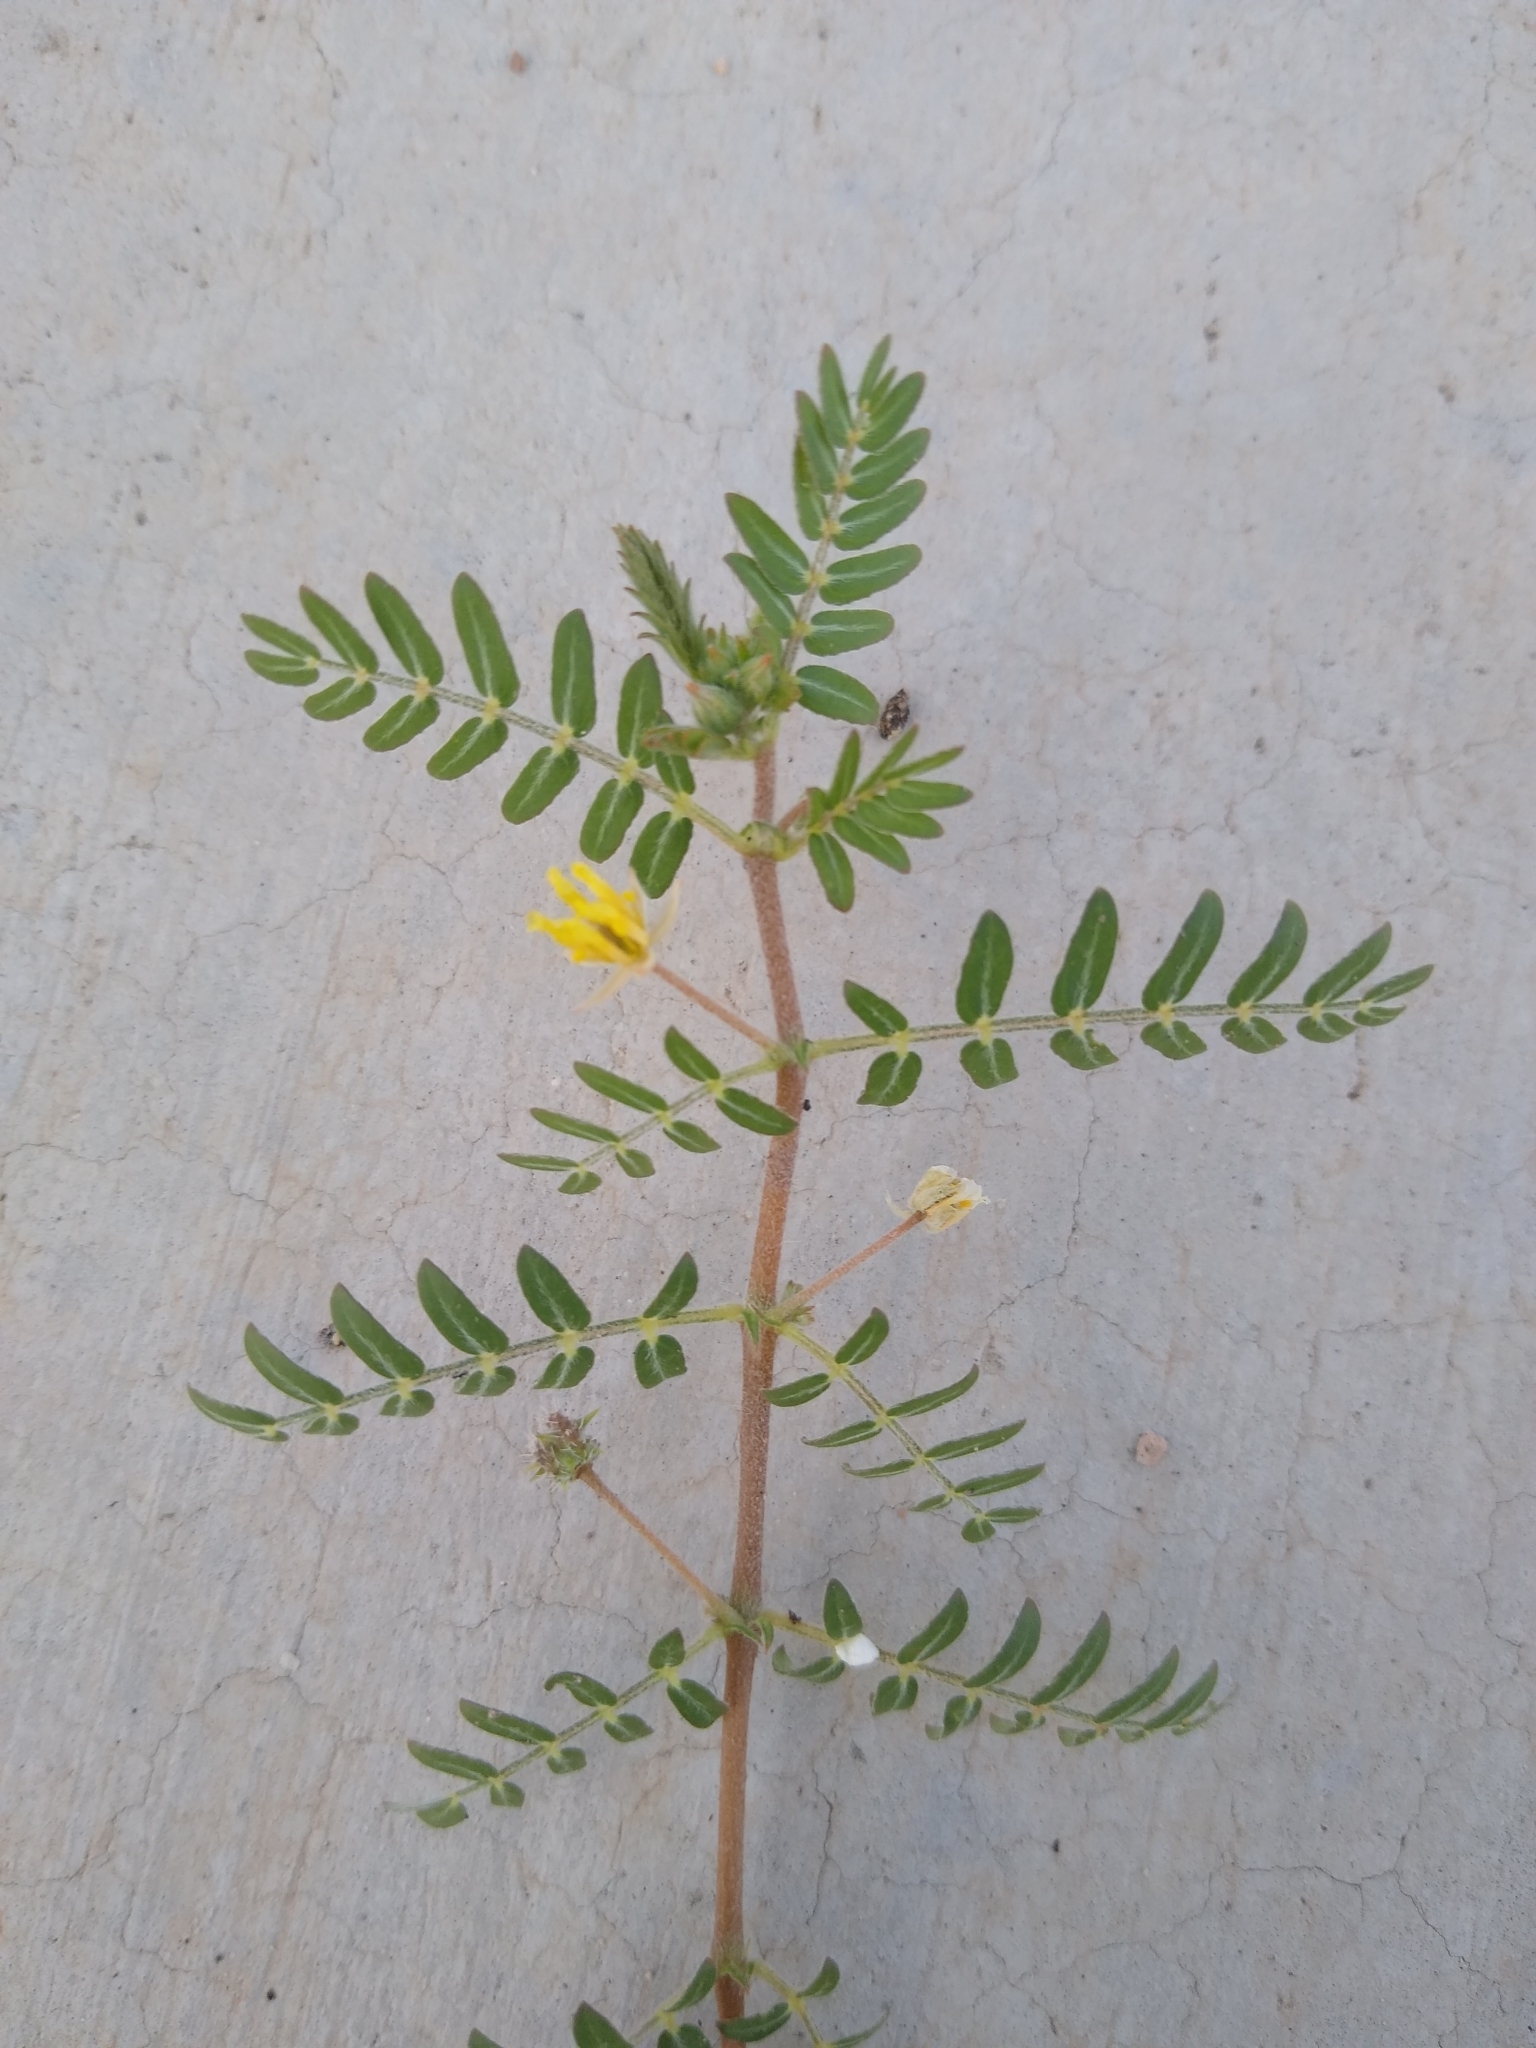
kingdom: Plantae
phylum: Tracheophyta
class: Magnoliopsida
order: Zygophyllales
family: Zygophyllaceae
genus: Tribulus
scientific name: Tribulus terrestris
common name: Puncturevine
